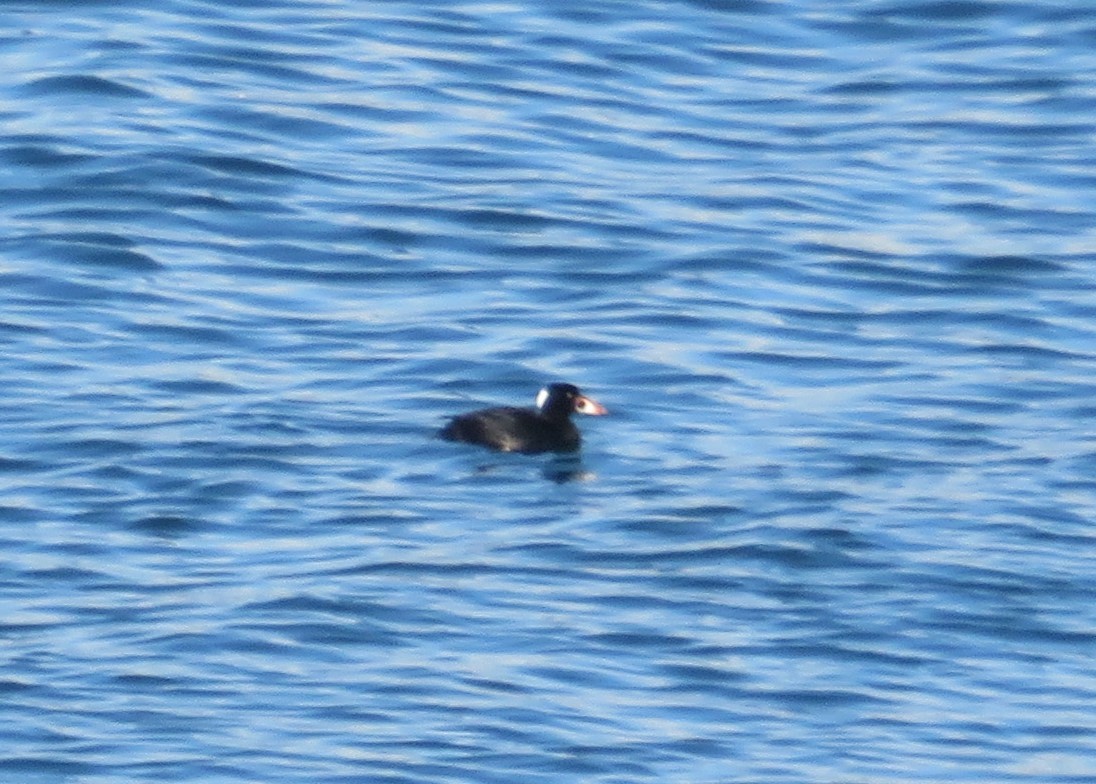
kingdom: Animalia
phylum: Chordata
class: Aves
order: Anseriformes
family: Anatidae
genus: Melanitta
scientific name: Melanitta perspicillata
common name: Surf scoter
